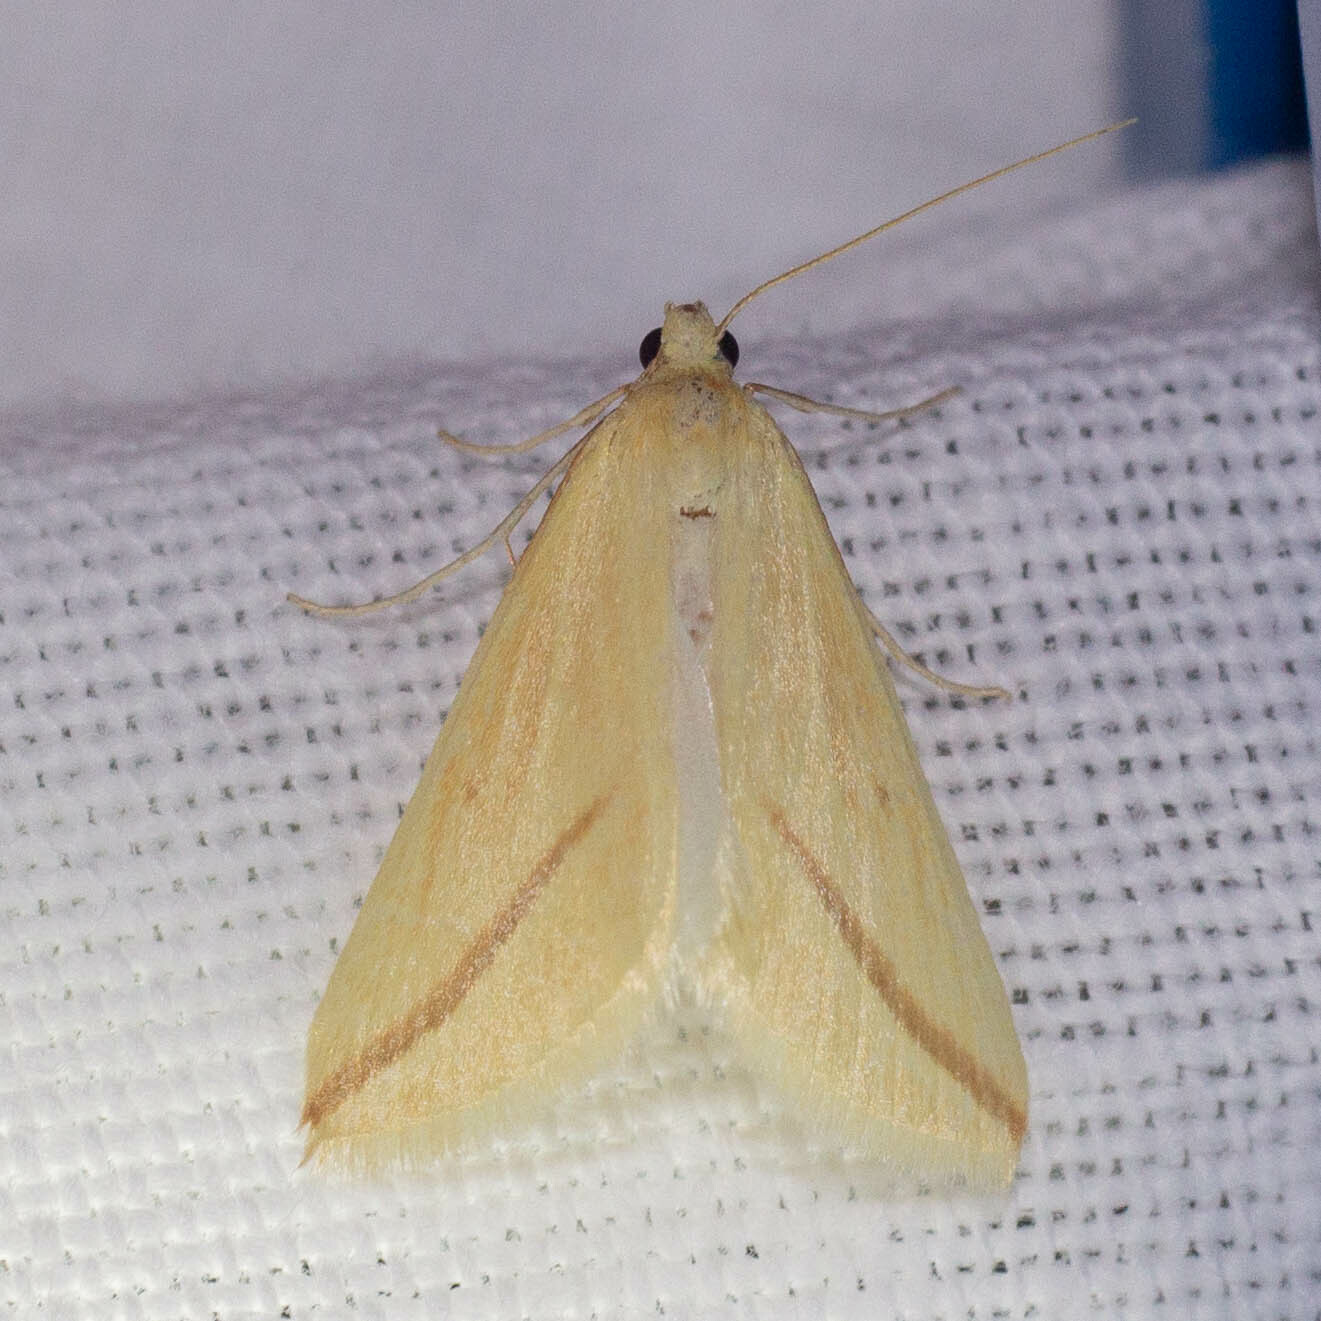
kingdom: Animalia
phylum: Arthropoda
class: Insecta
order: Lepidoptera
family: Geometridae
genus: Rhodometra
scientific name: Rhodometra sacraria
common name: Vestal
